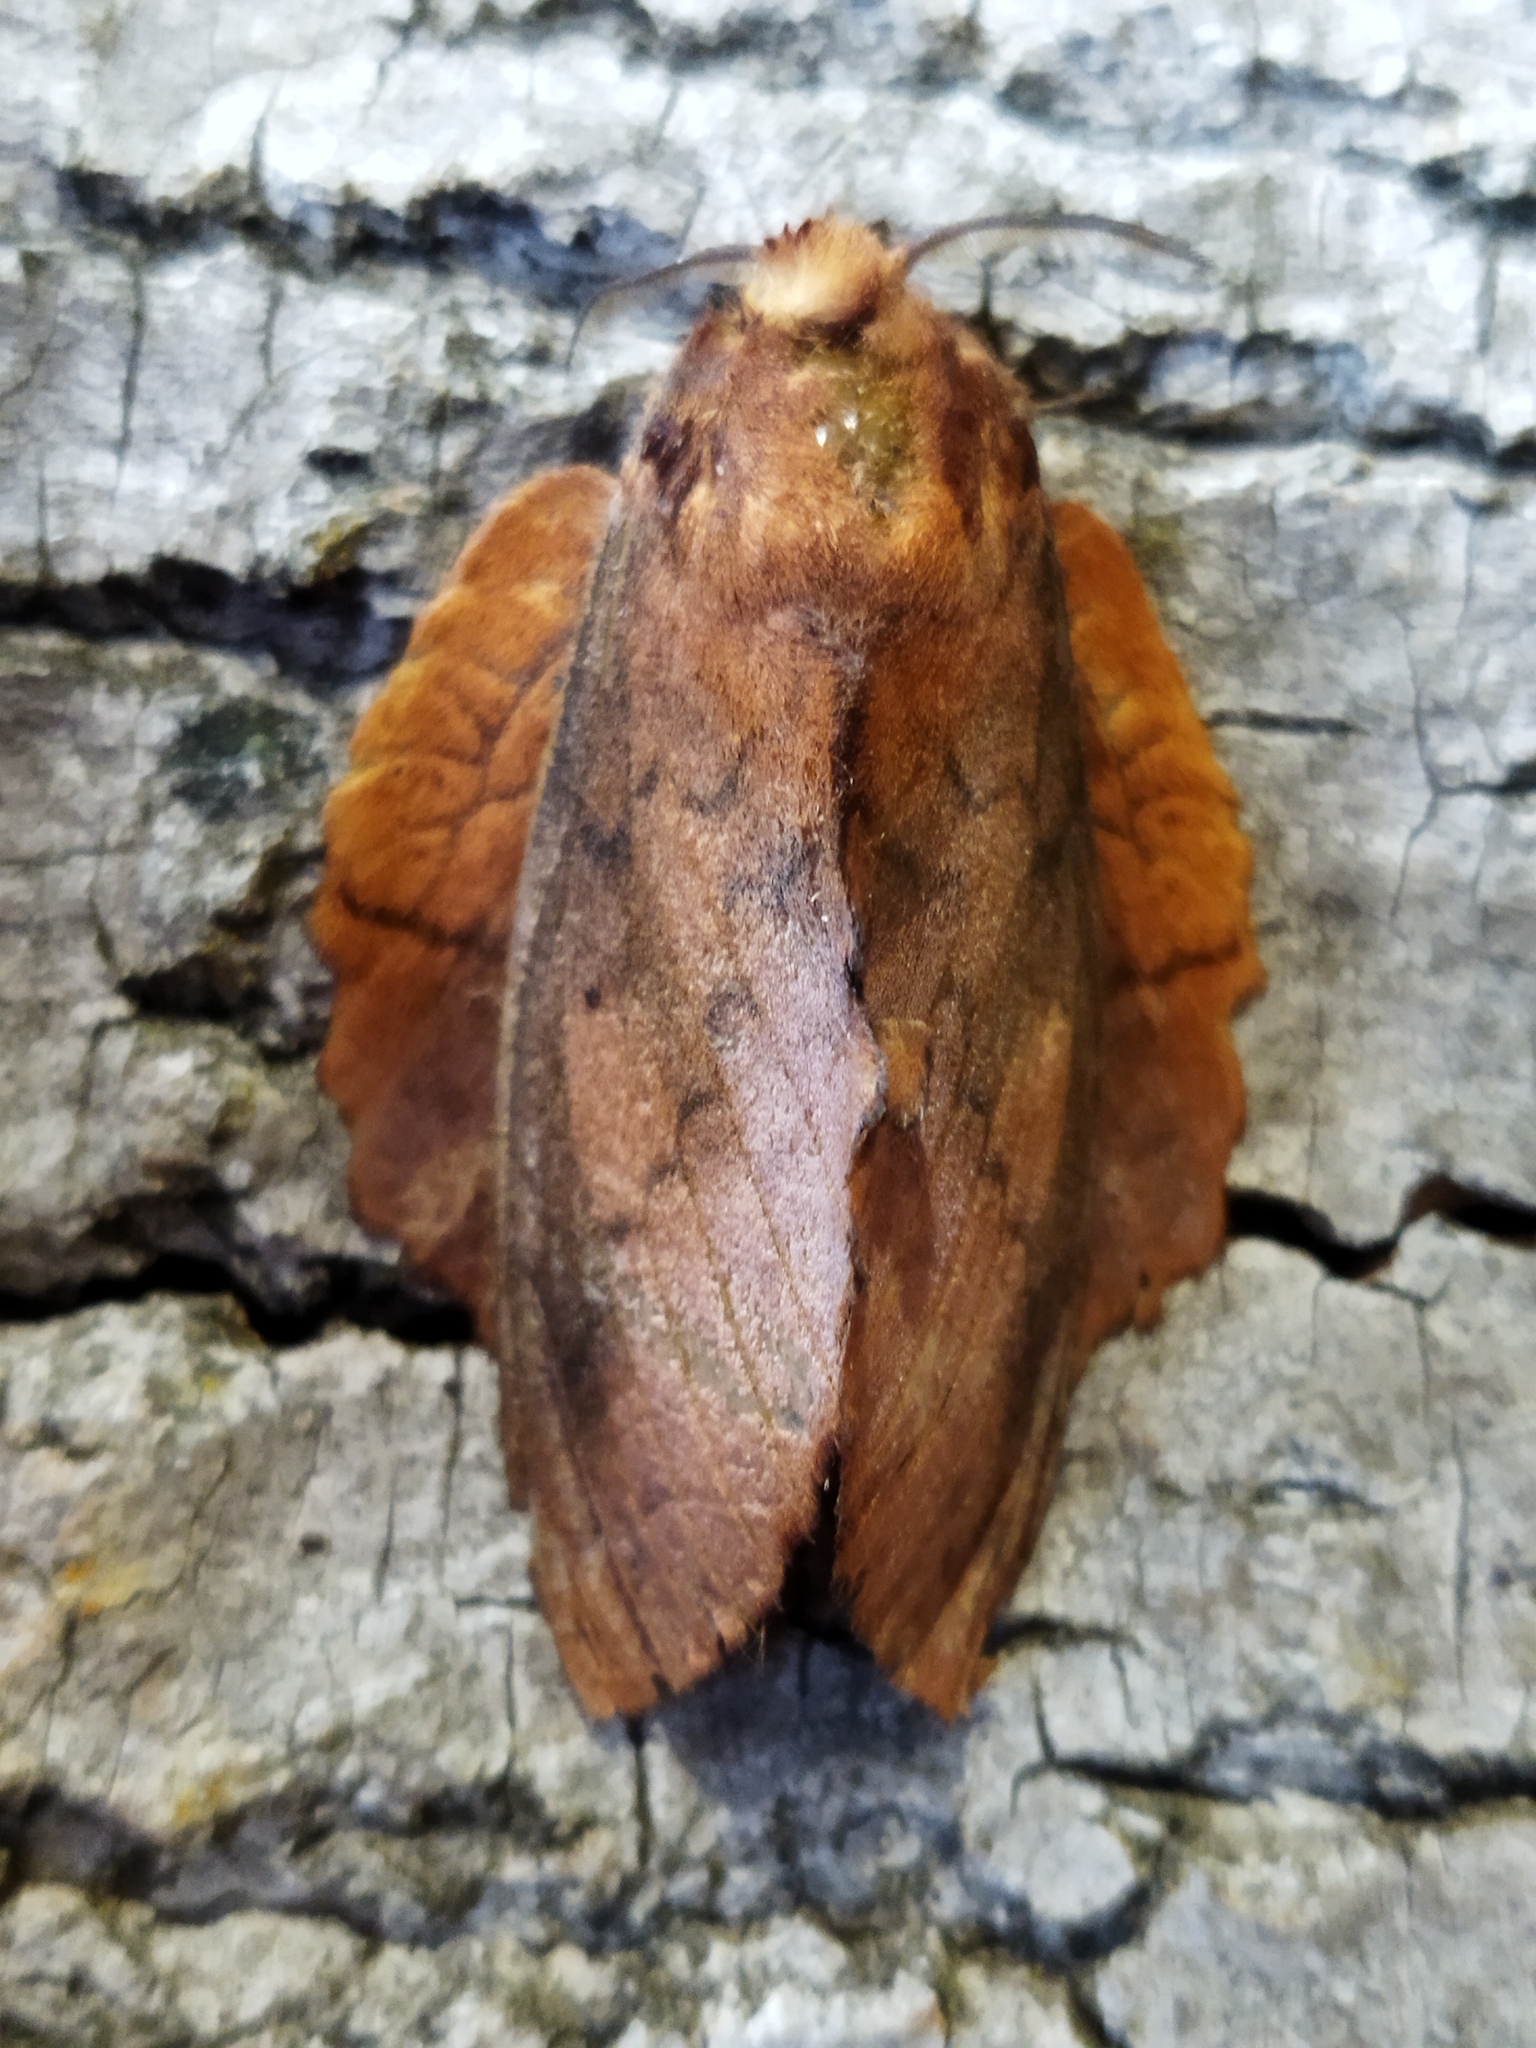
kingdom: Animalia
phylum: Arthropoda
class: Insecta
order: Lepidoptera
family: Lasiocampidae
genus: Gastropacha
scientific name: Gastropacha quercifolia
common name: Lappet
